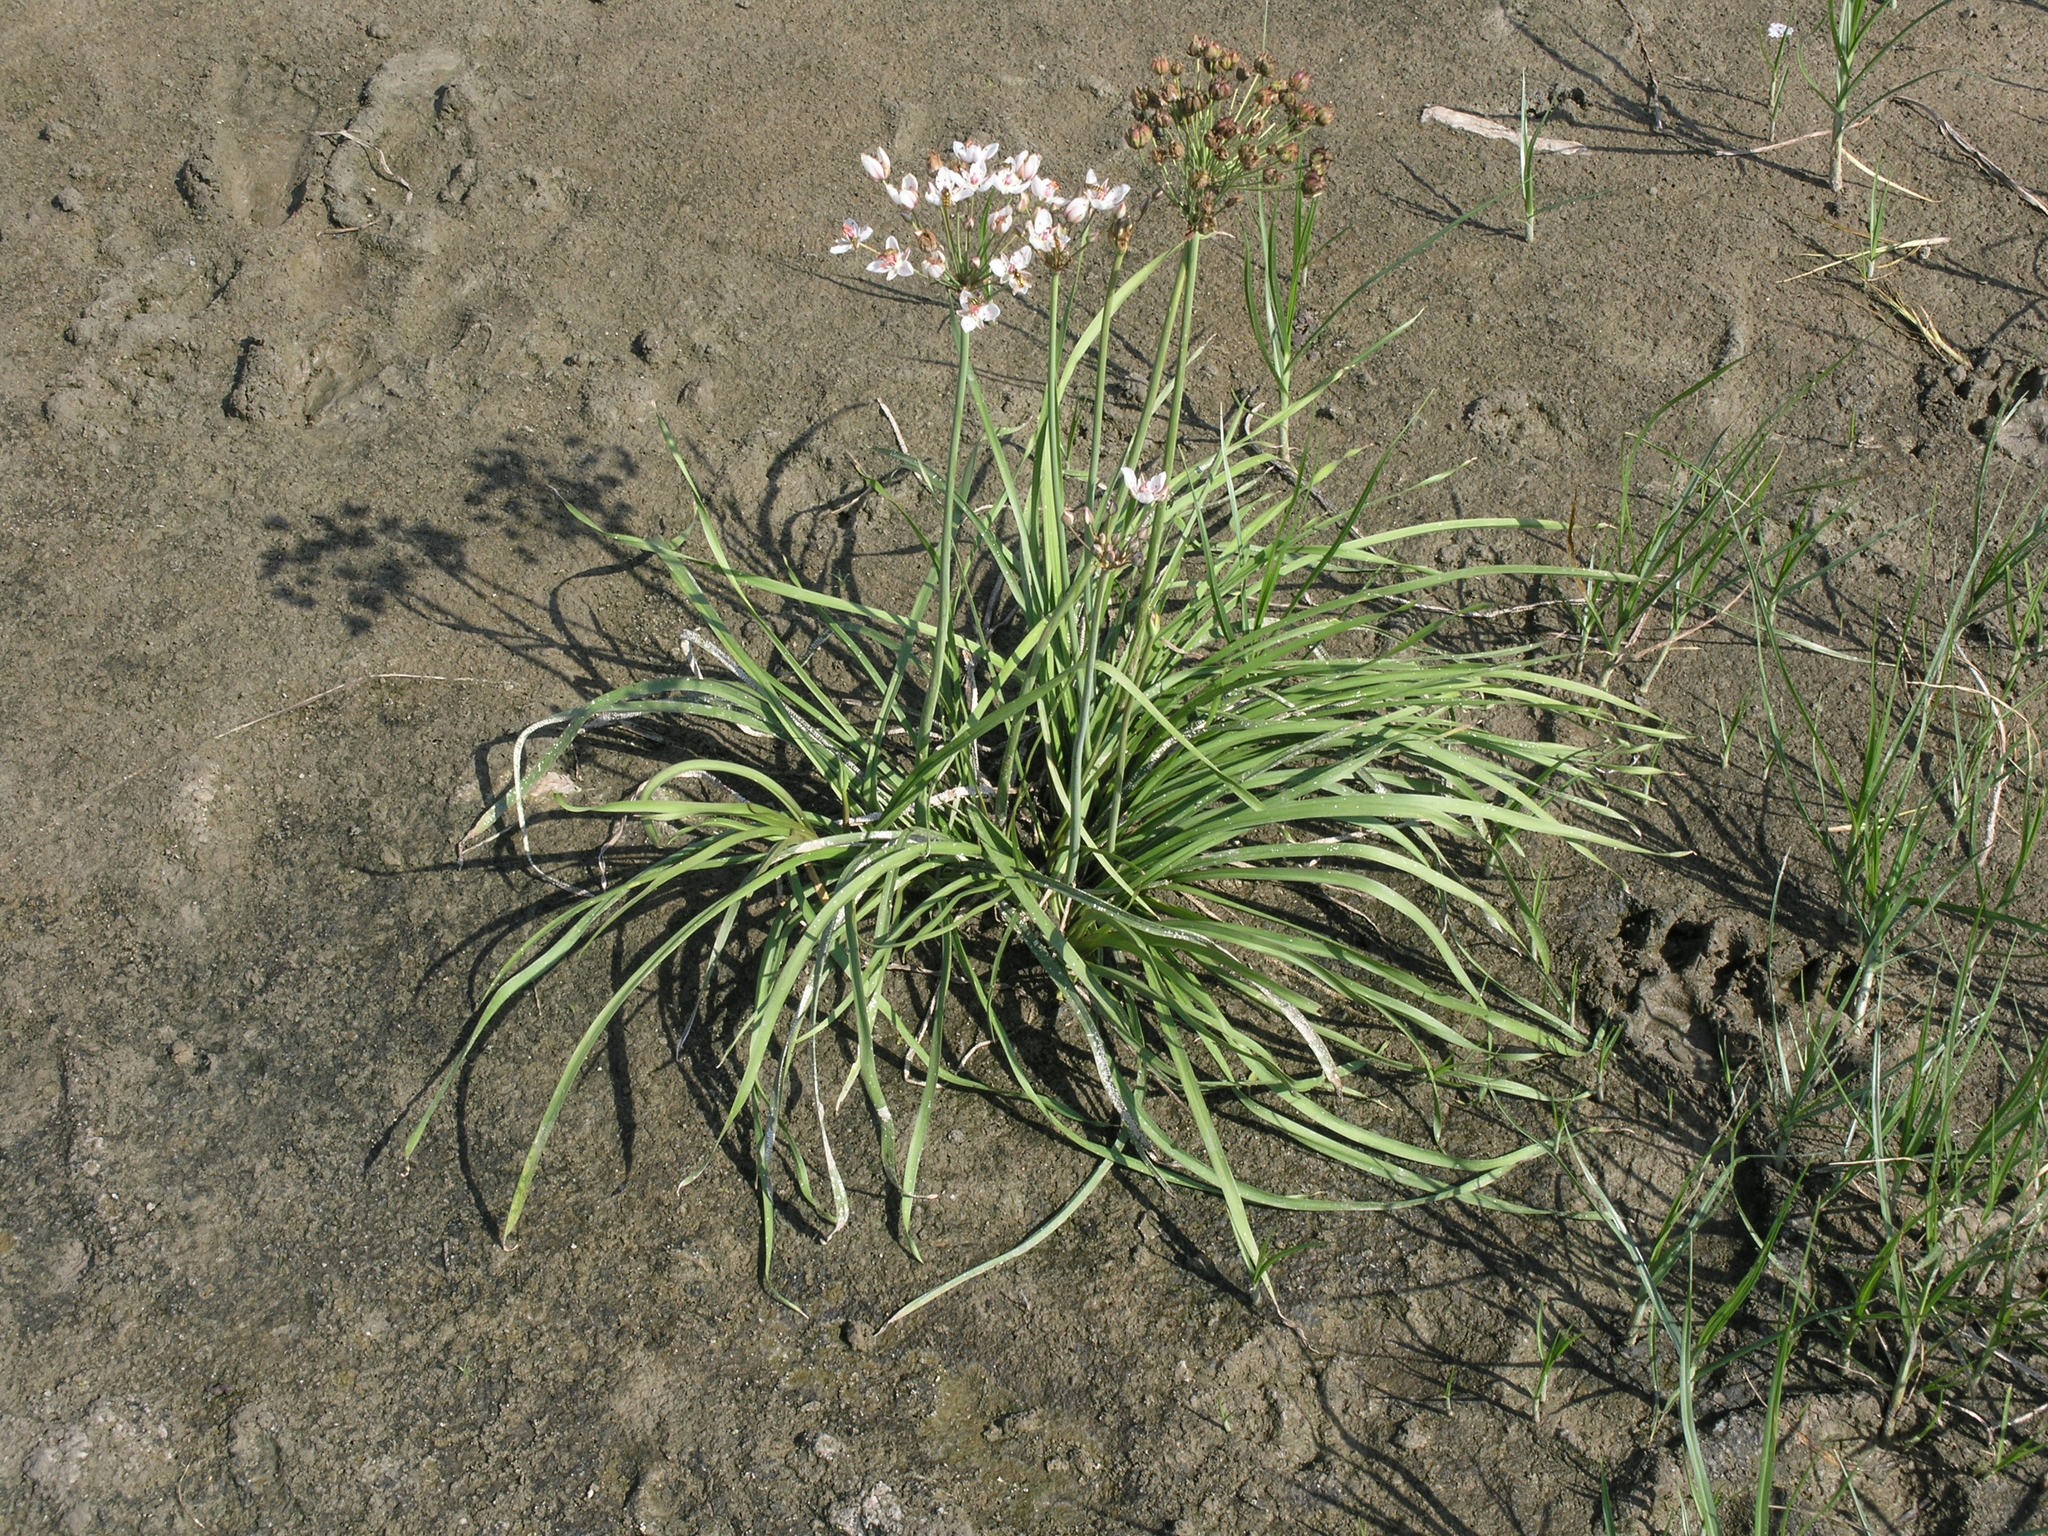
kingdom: Plantae
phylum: Tracheophyta
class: Liliopsida
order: Alismatales
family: Butomaceae
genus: Butomus
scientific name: Butomus umbellatus
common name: Flowering-rush
